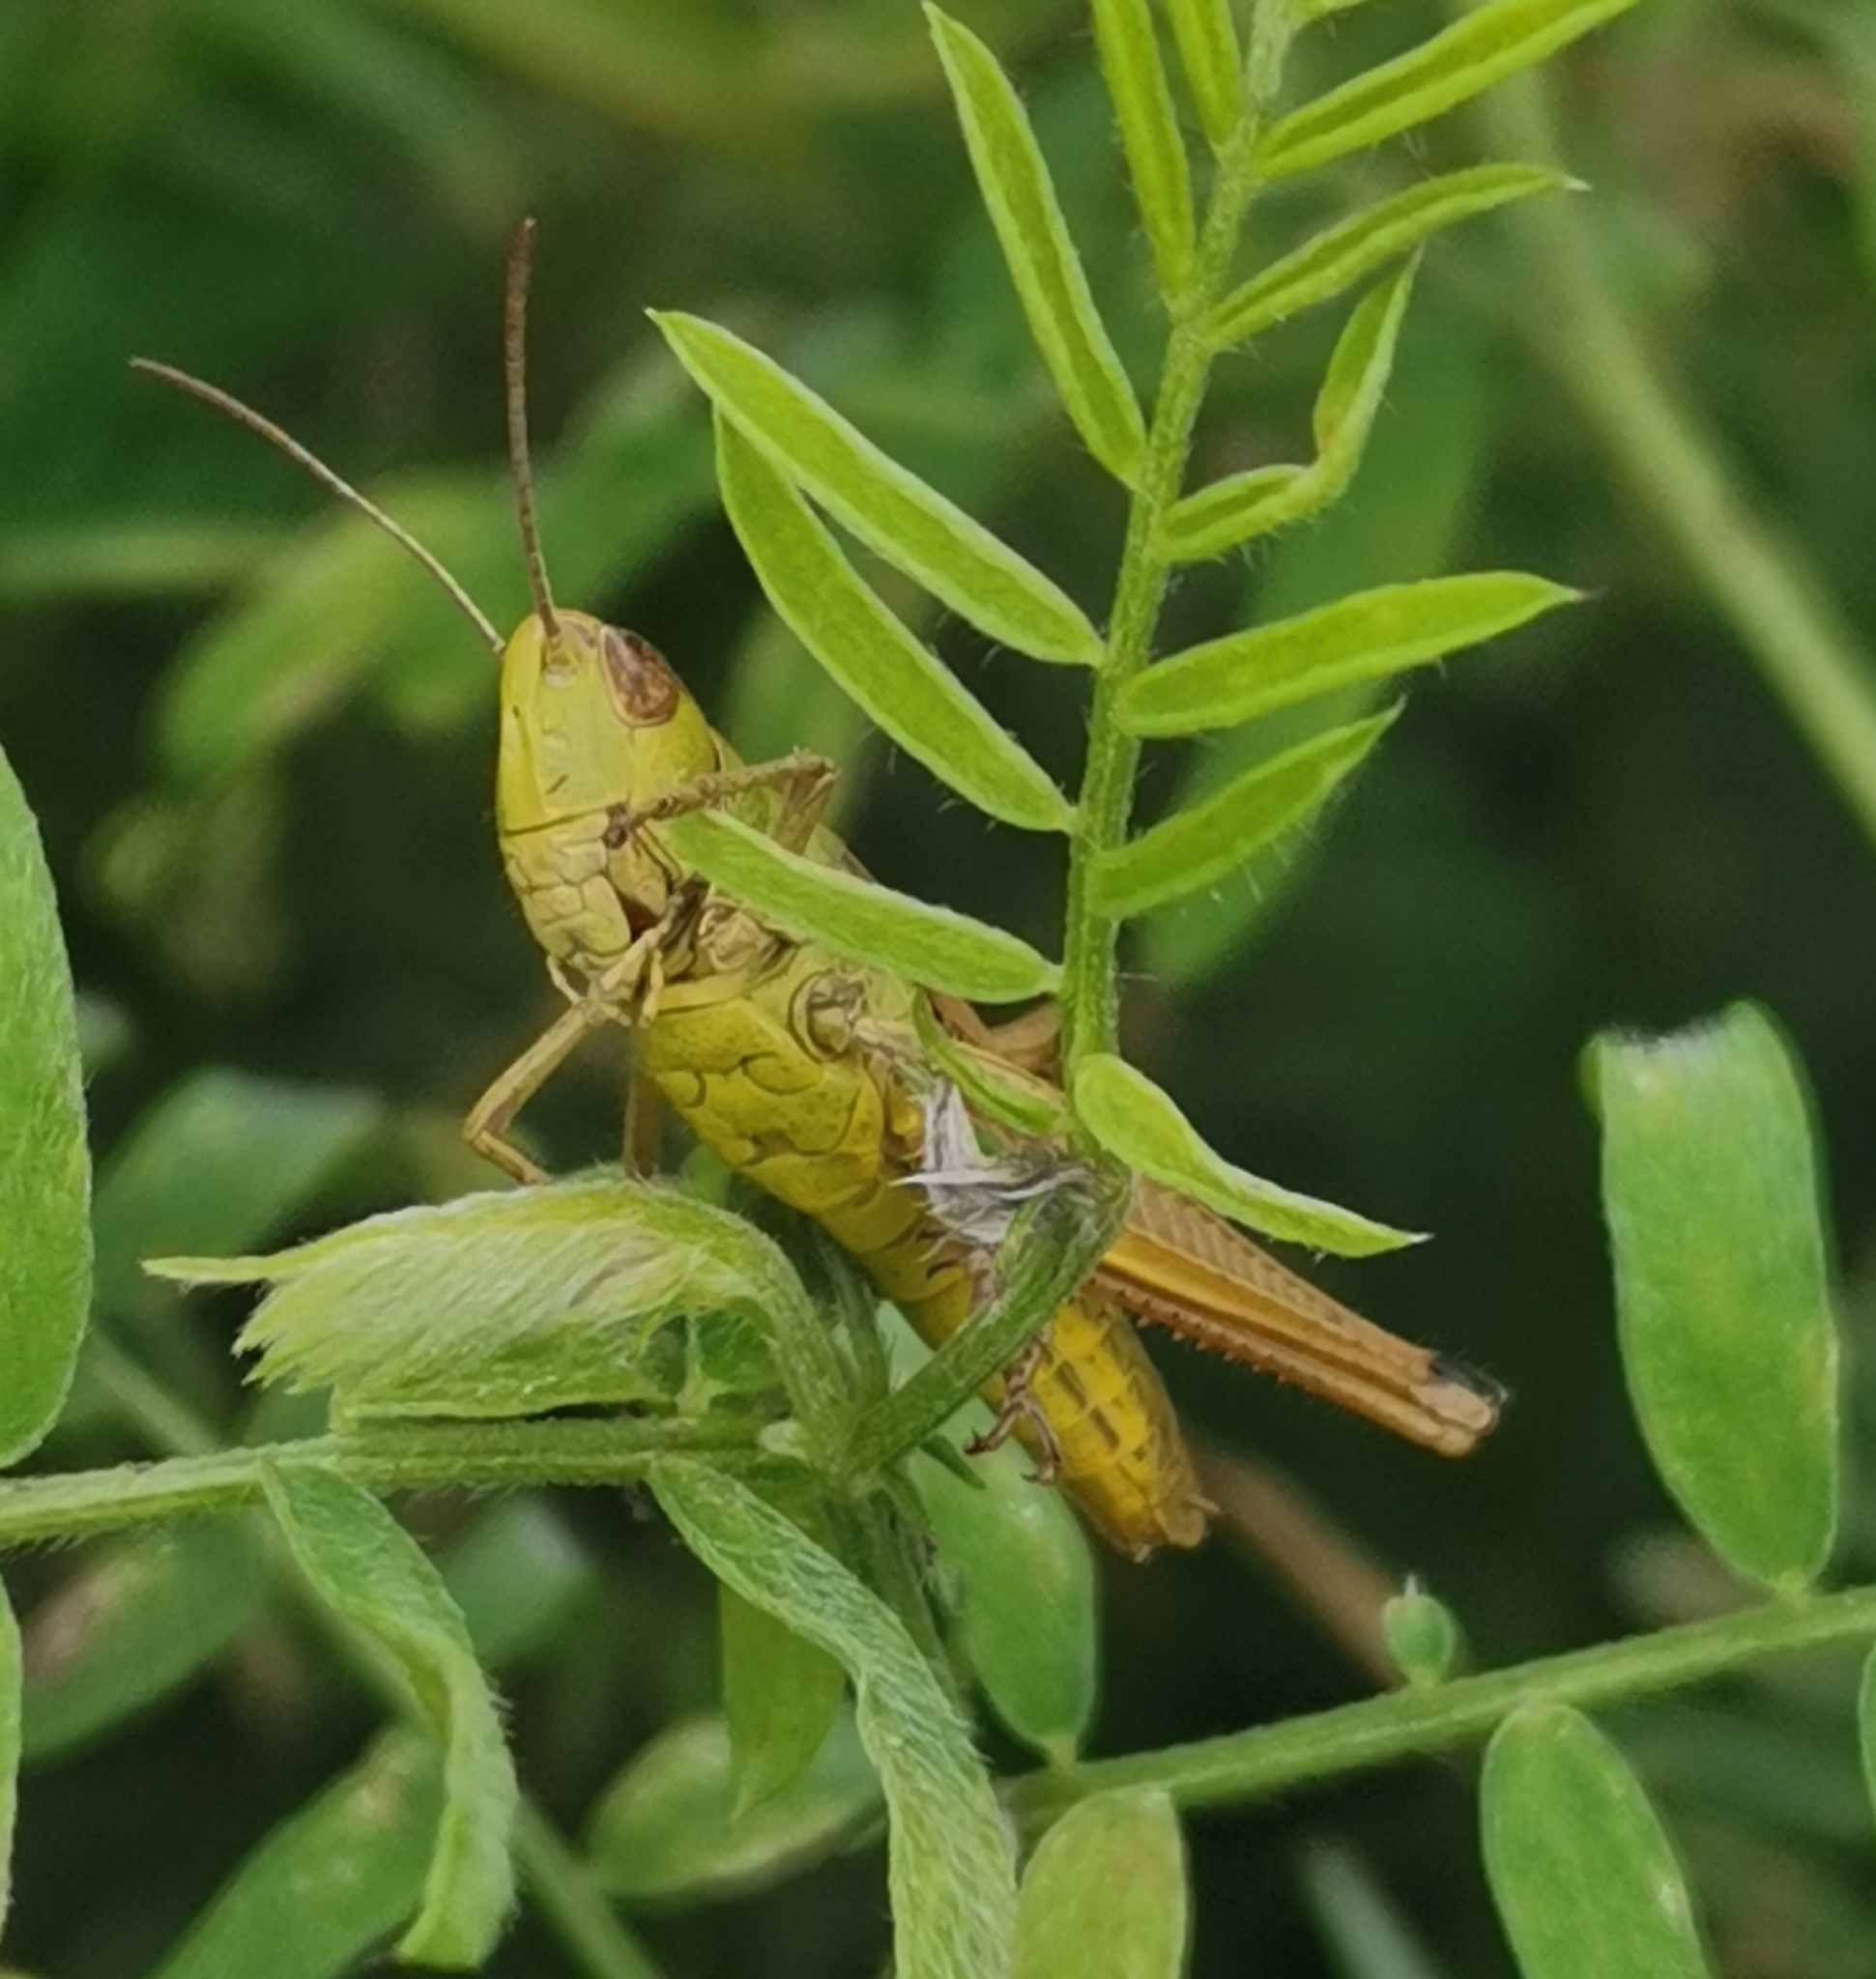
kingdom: Animalia
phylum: Arthropoda
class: Insecta
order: Orthoptera
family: Acrididae
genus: Pseudochorthippus
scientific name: Pseudochorthippus parallelus
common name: Meadow grasshopper
